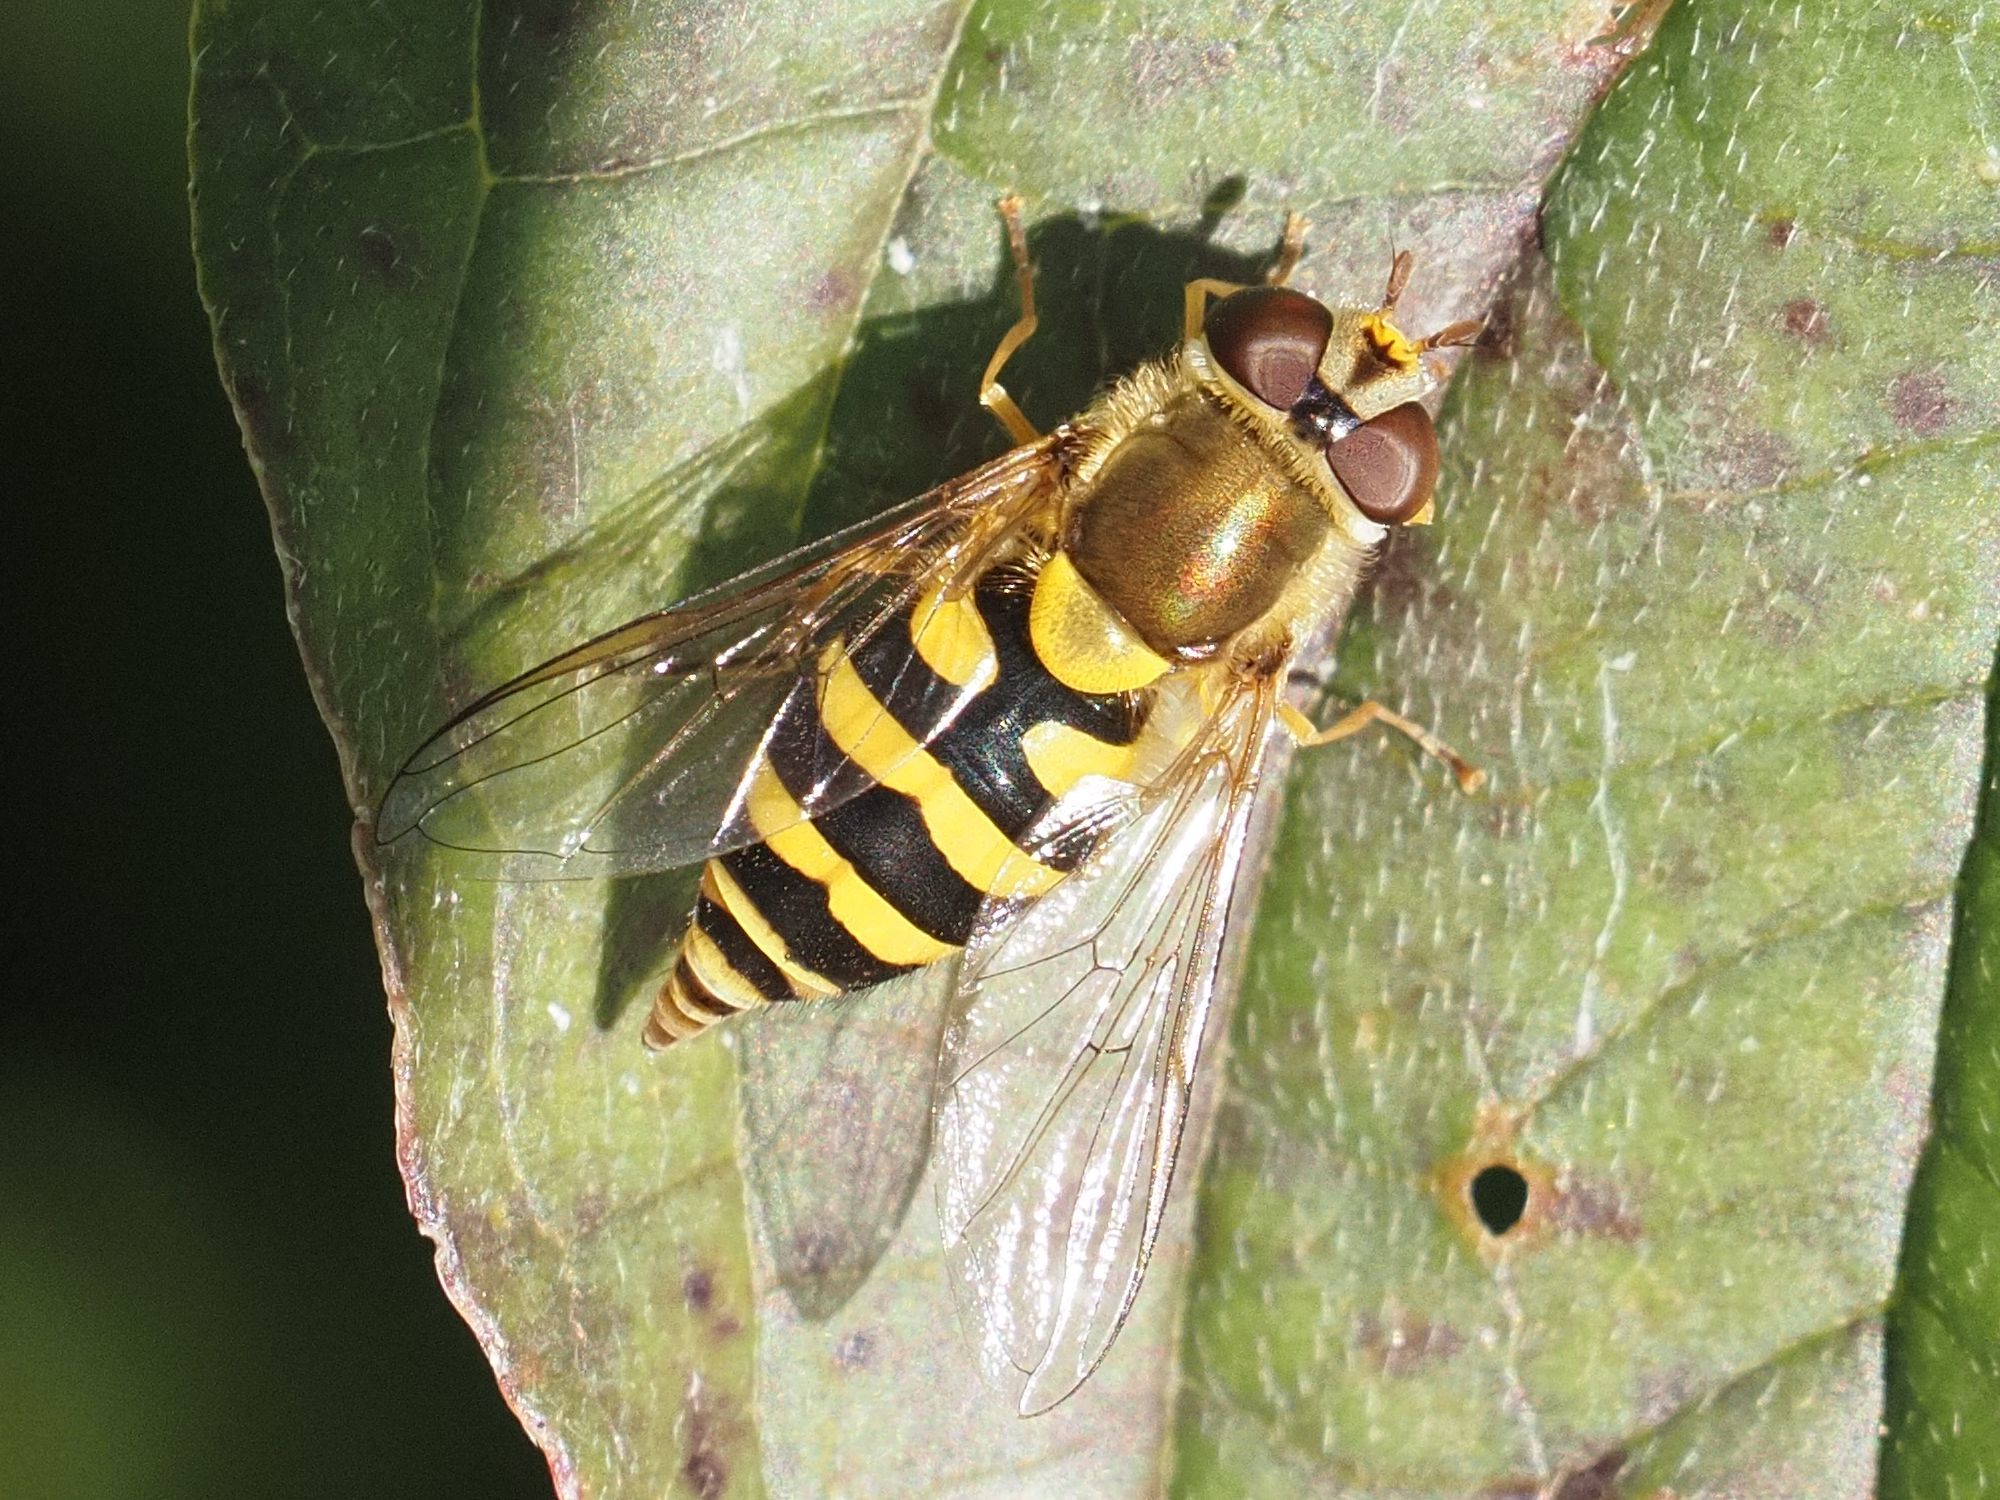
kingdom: Animalia
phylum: Arthropoda
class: Insecta
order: Diptera
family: Syrphidae
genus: Syrphus
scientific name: Syrphus
